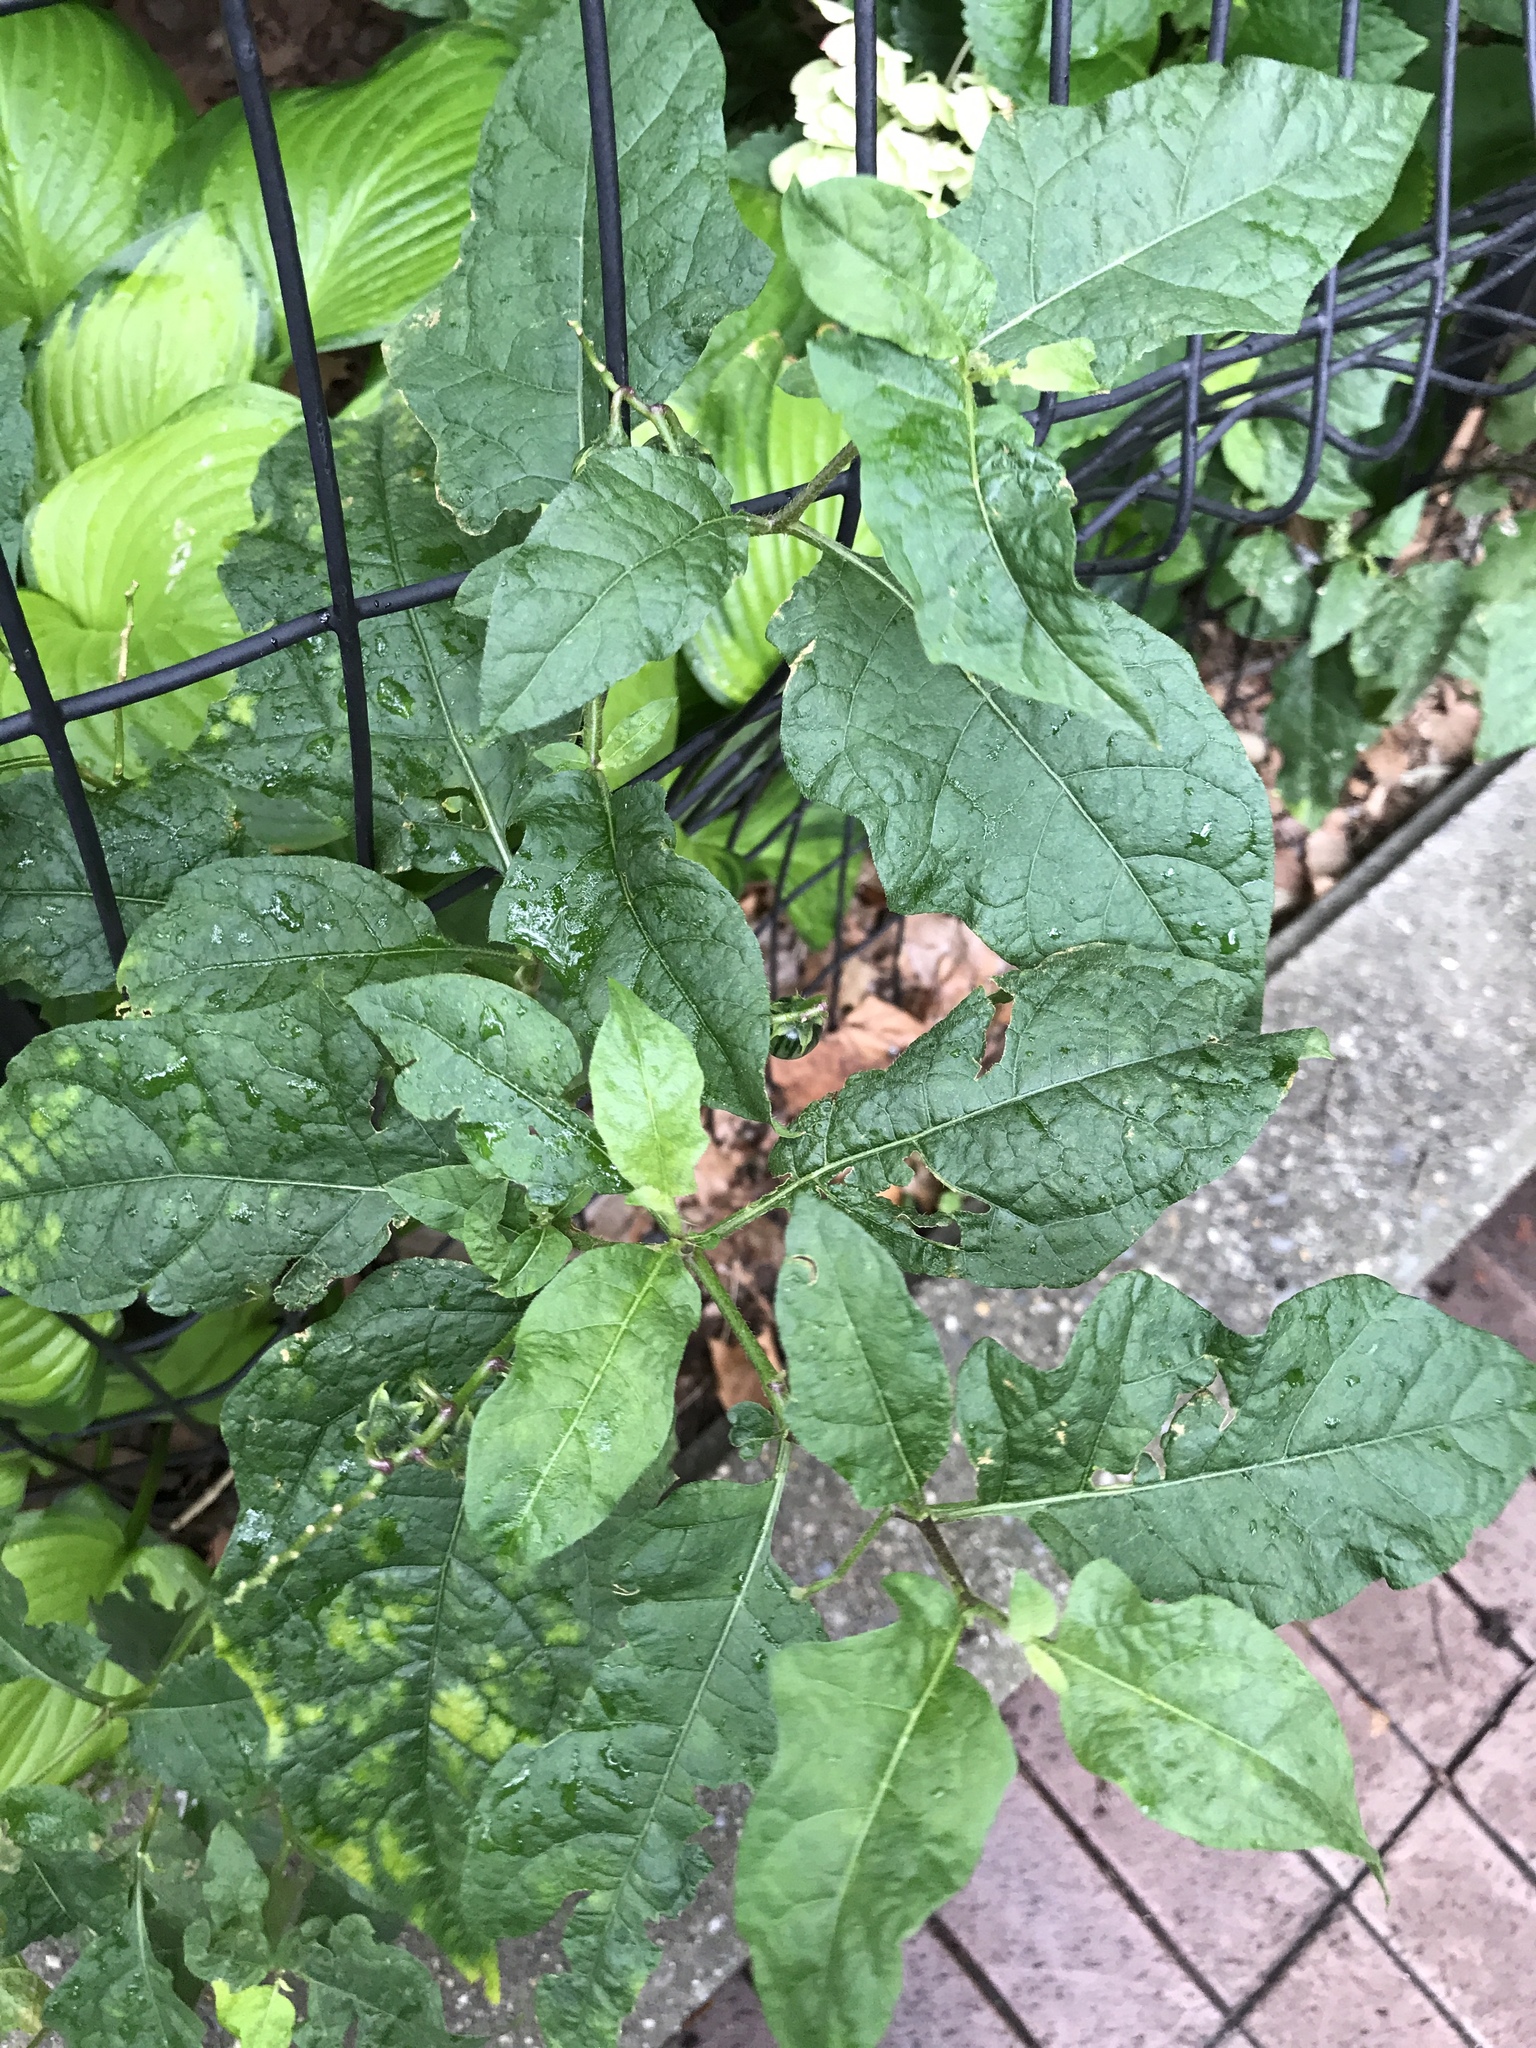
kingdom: Plantae
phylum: Tracheophyta
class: Magnoliopsida
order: Solanales
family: Solanaceae
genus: Solanum
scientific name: Solanum carolinense
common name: Horse-nettle
